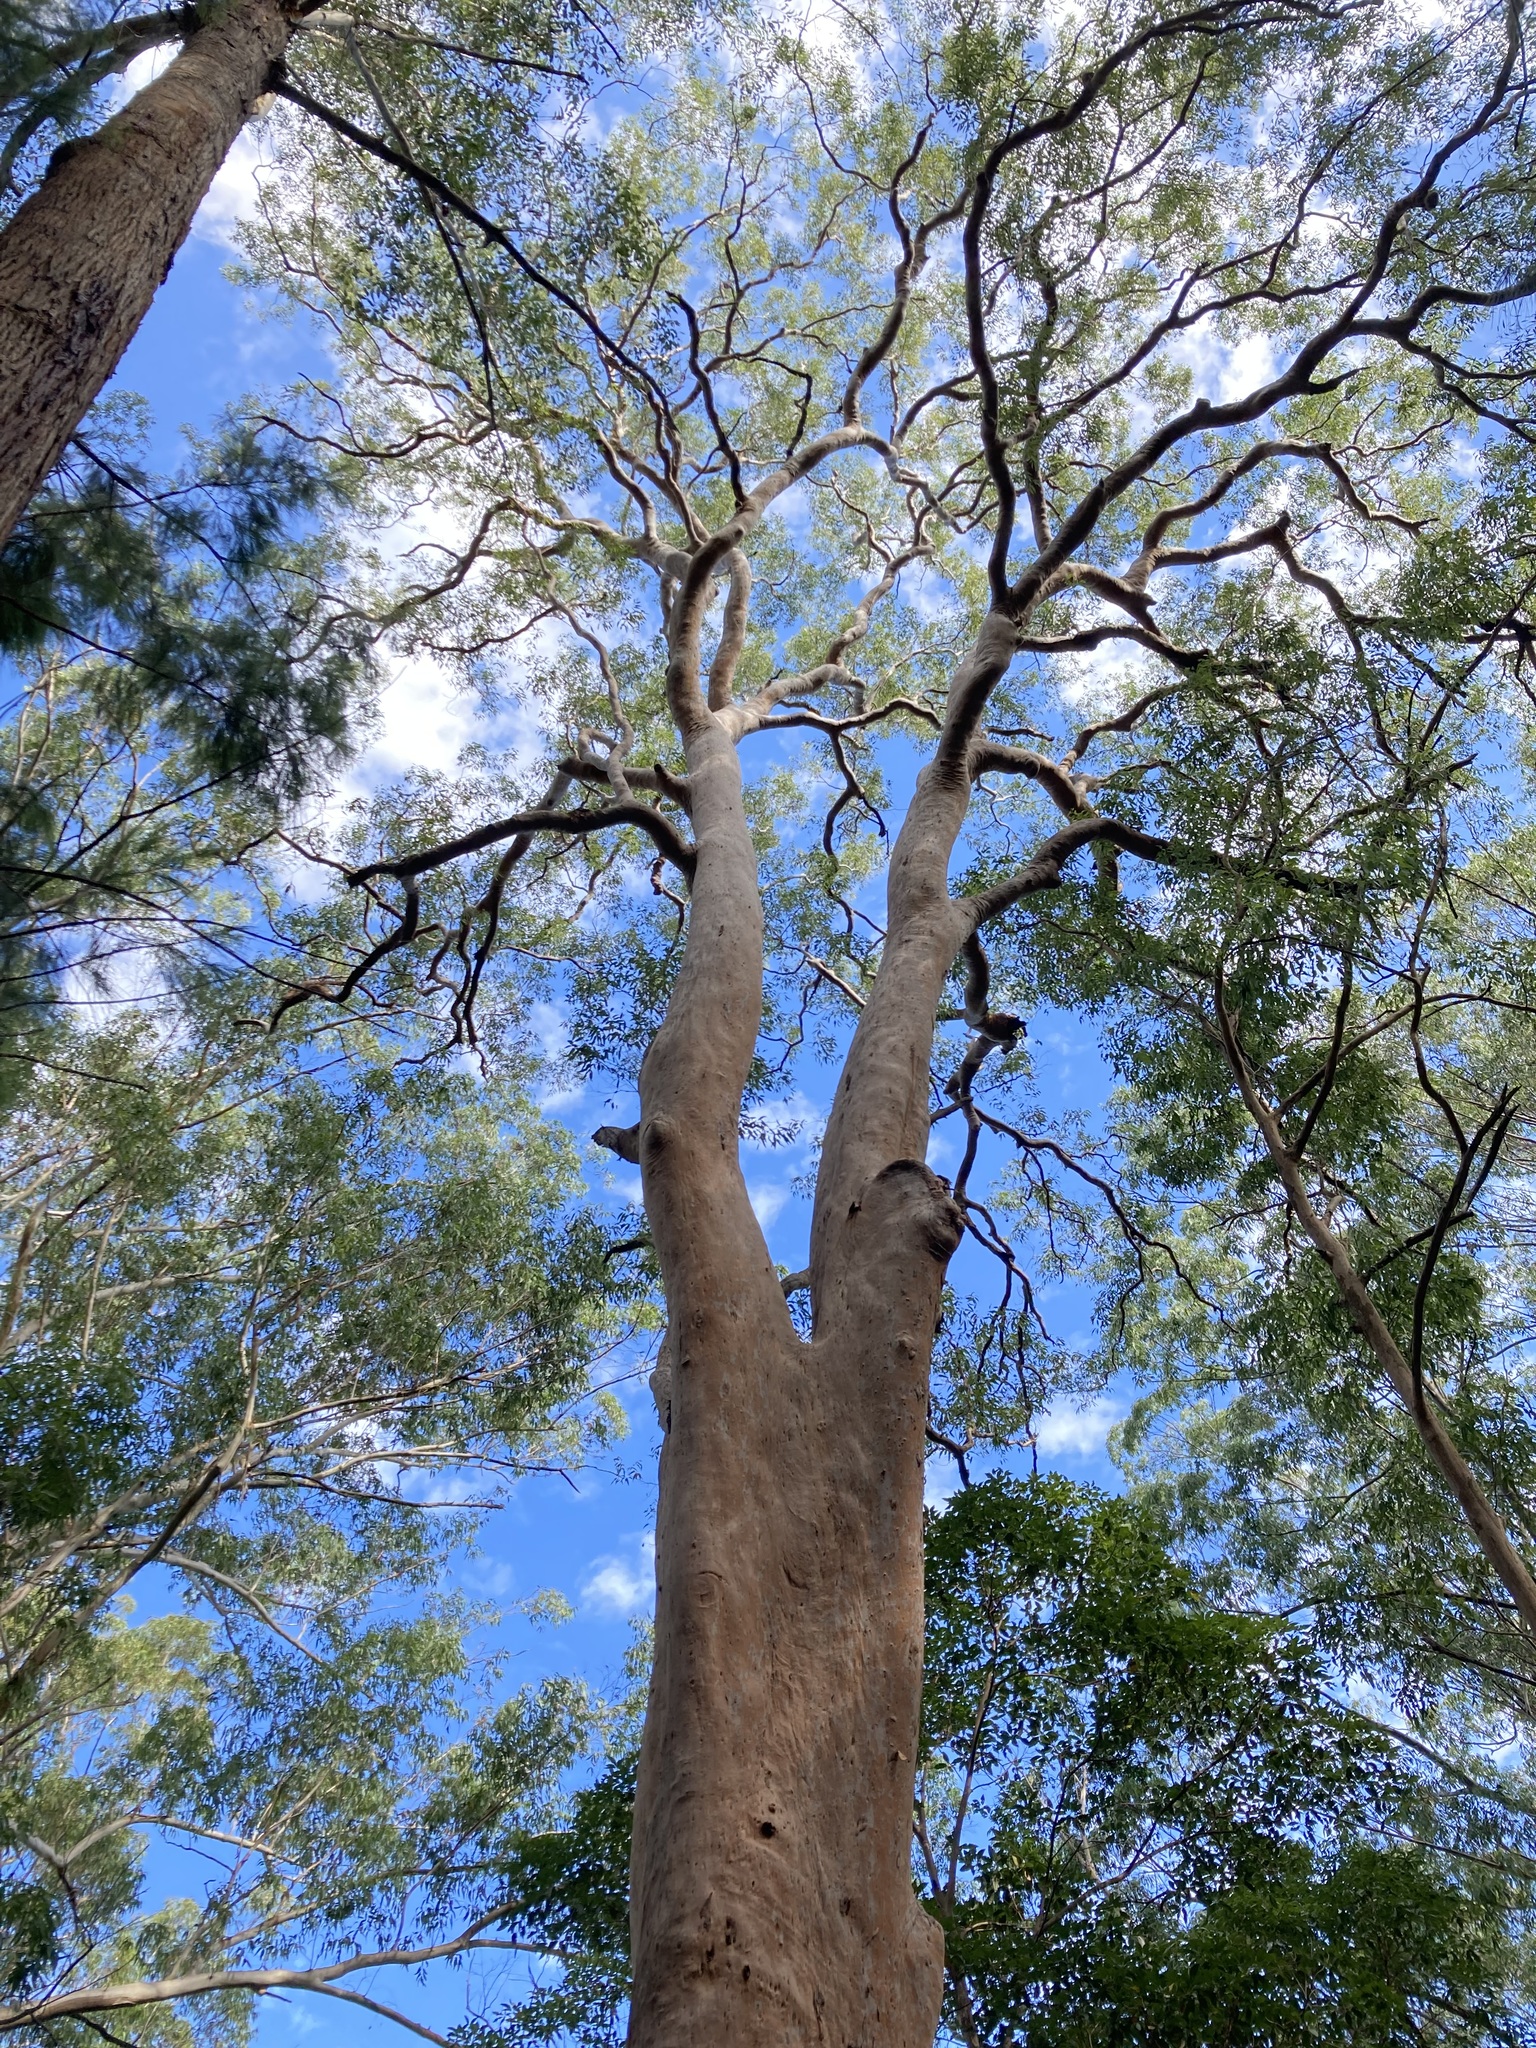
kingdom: Plantae
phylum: Tracheophyta
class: Magnoliopsida
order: Myrtales
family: Myrtaceae
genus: Angophora
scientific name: Angophora costata
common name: Gum myrtle
